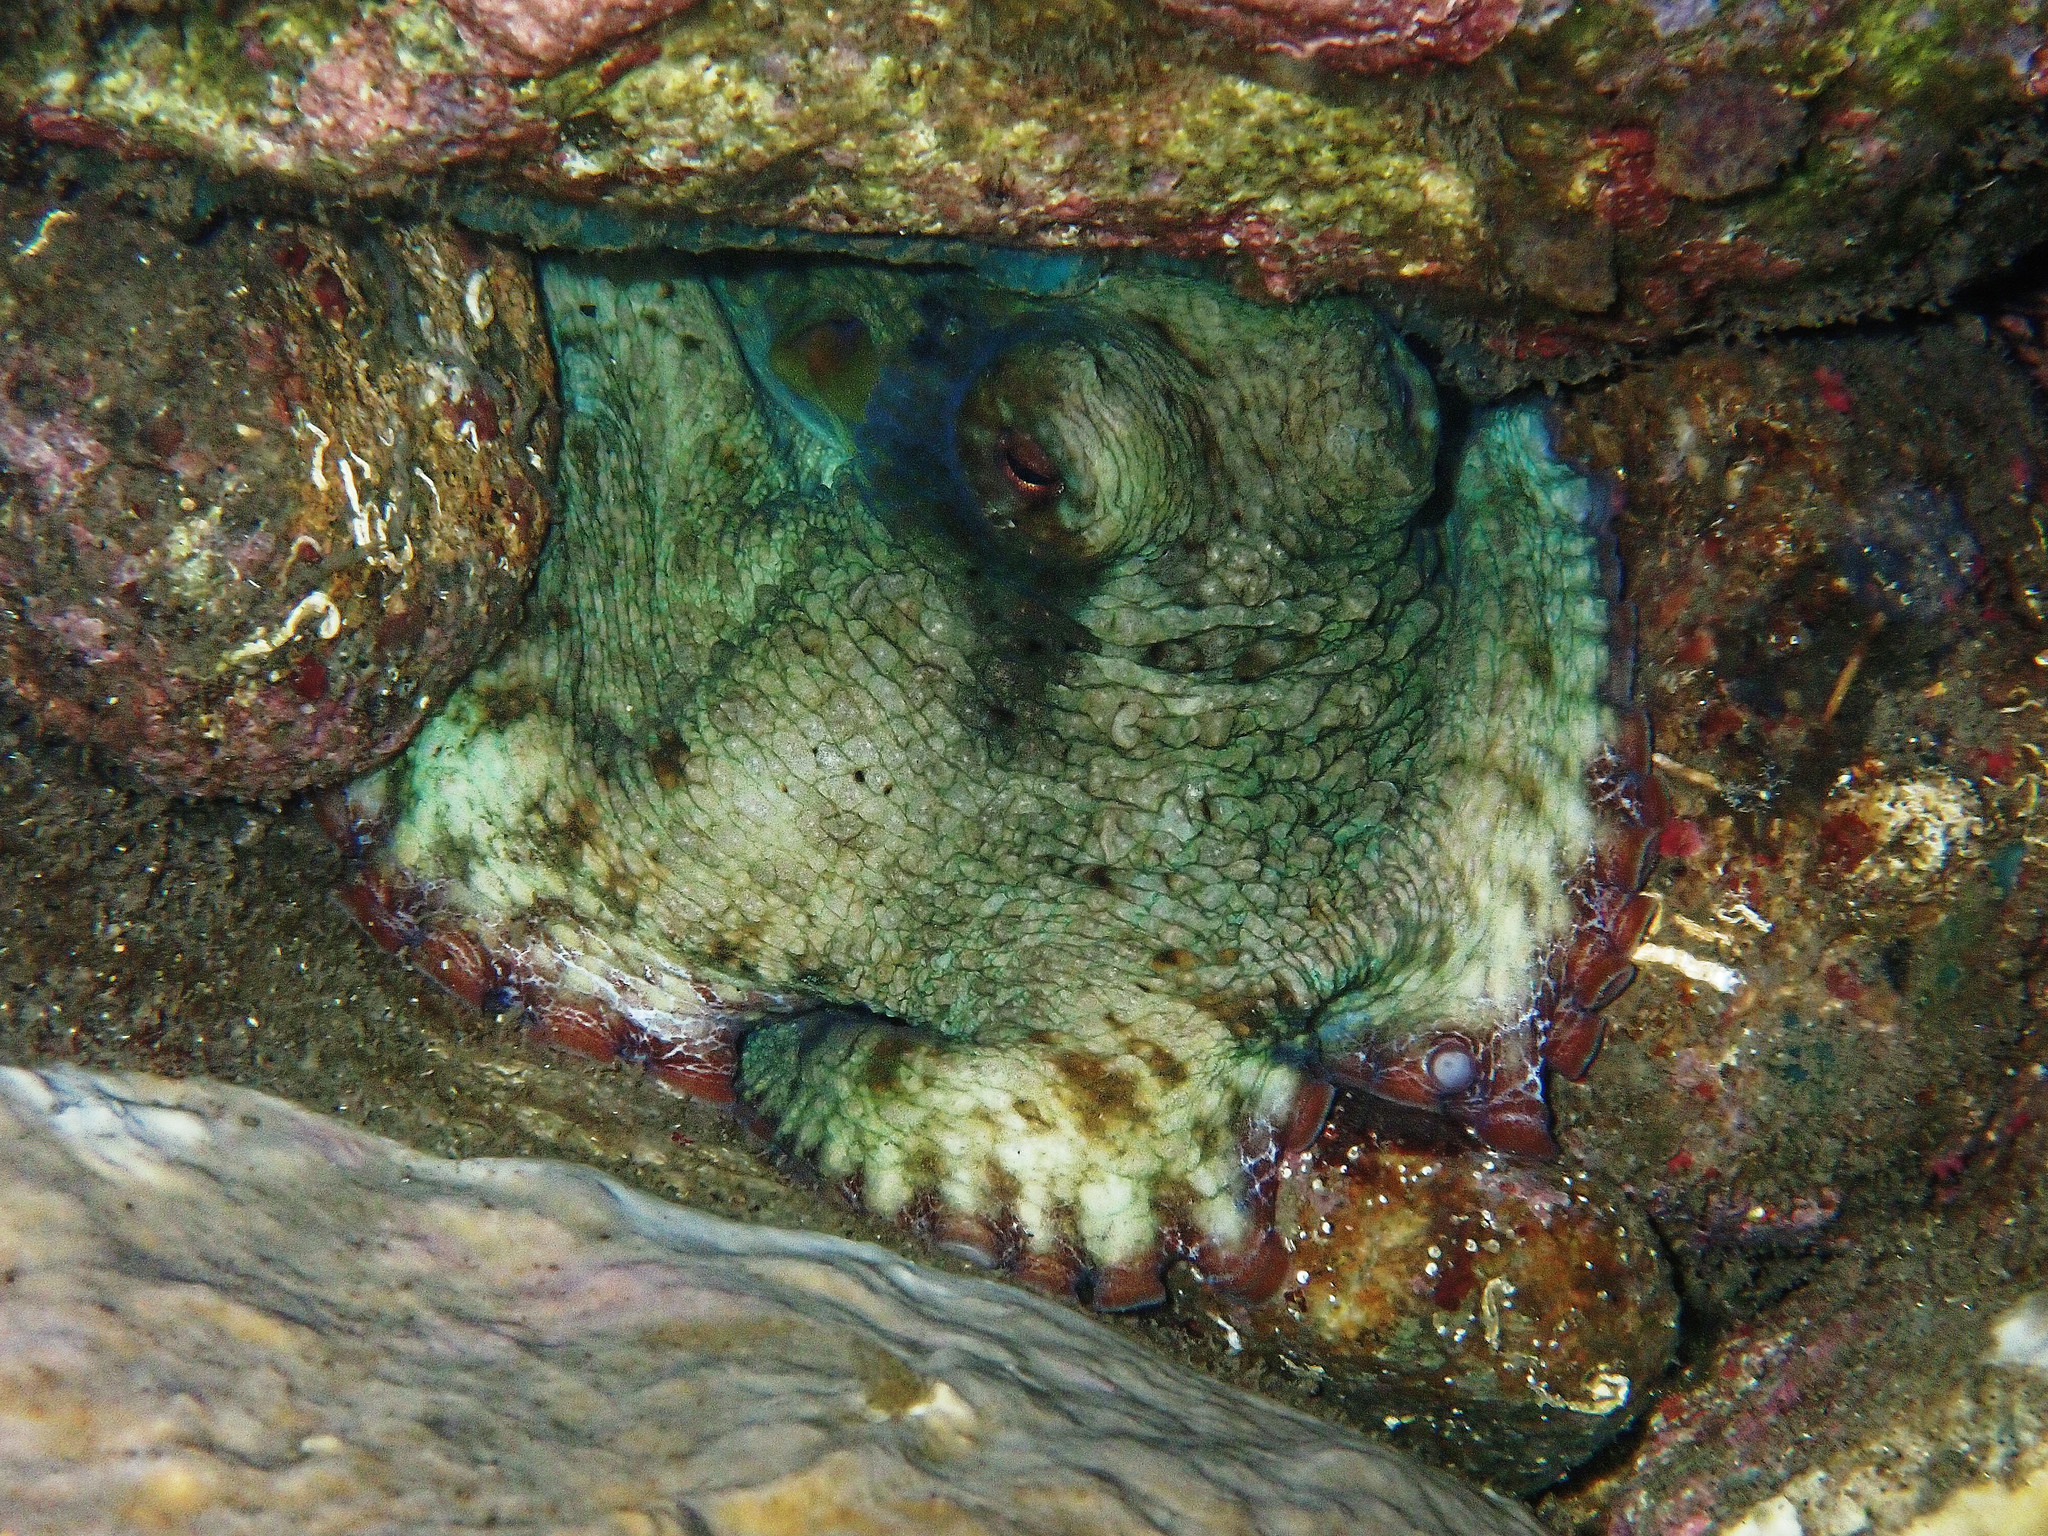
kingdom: Animalia
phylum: Mollusca
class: Cephalopoda
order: Octopoda
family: Octopodidae
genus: Octopus
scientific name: Octopus insularis
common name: Brazil reef octopus
